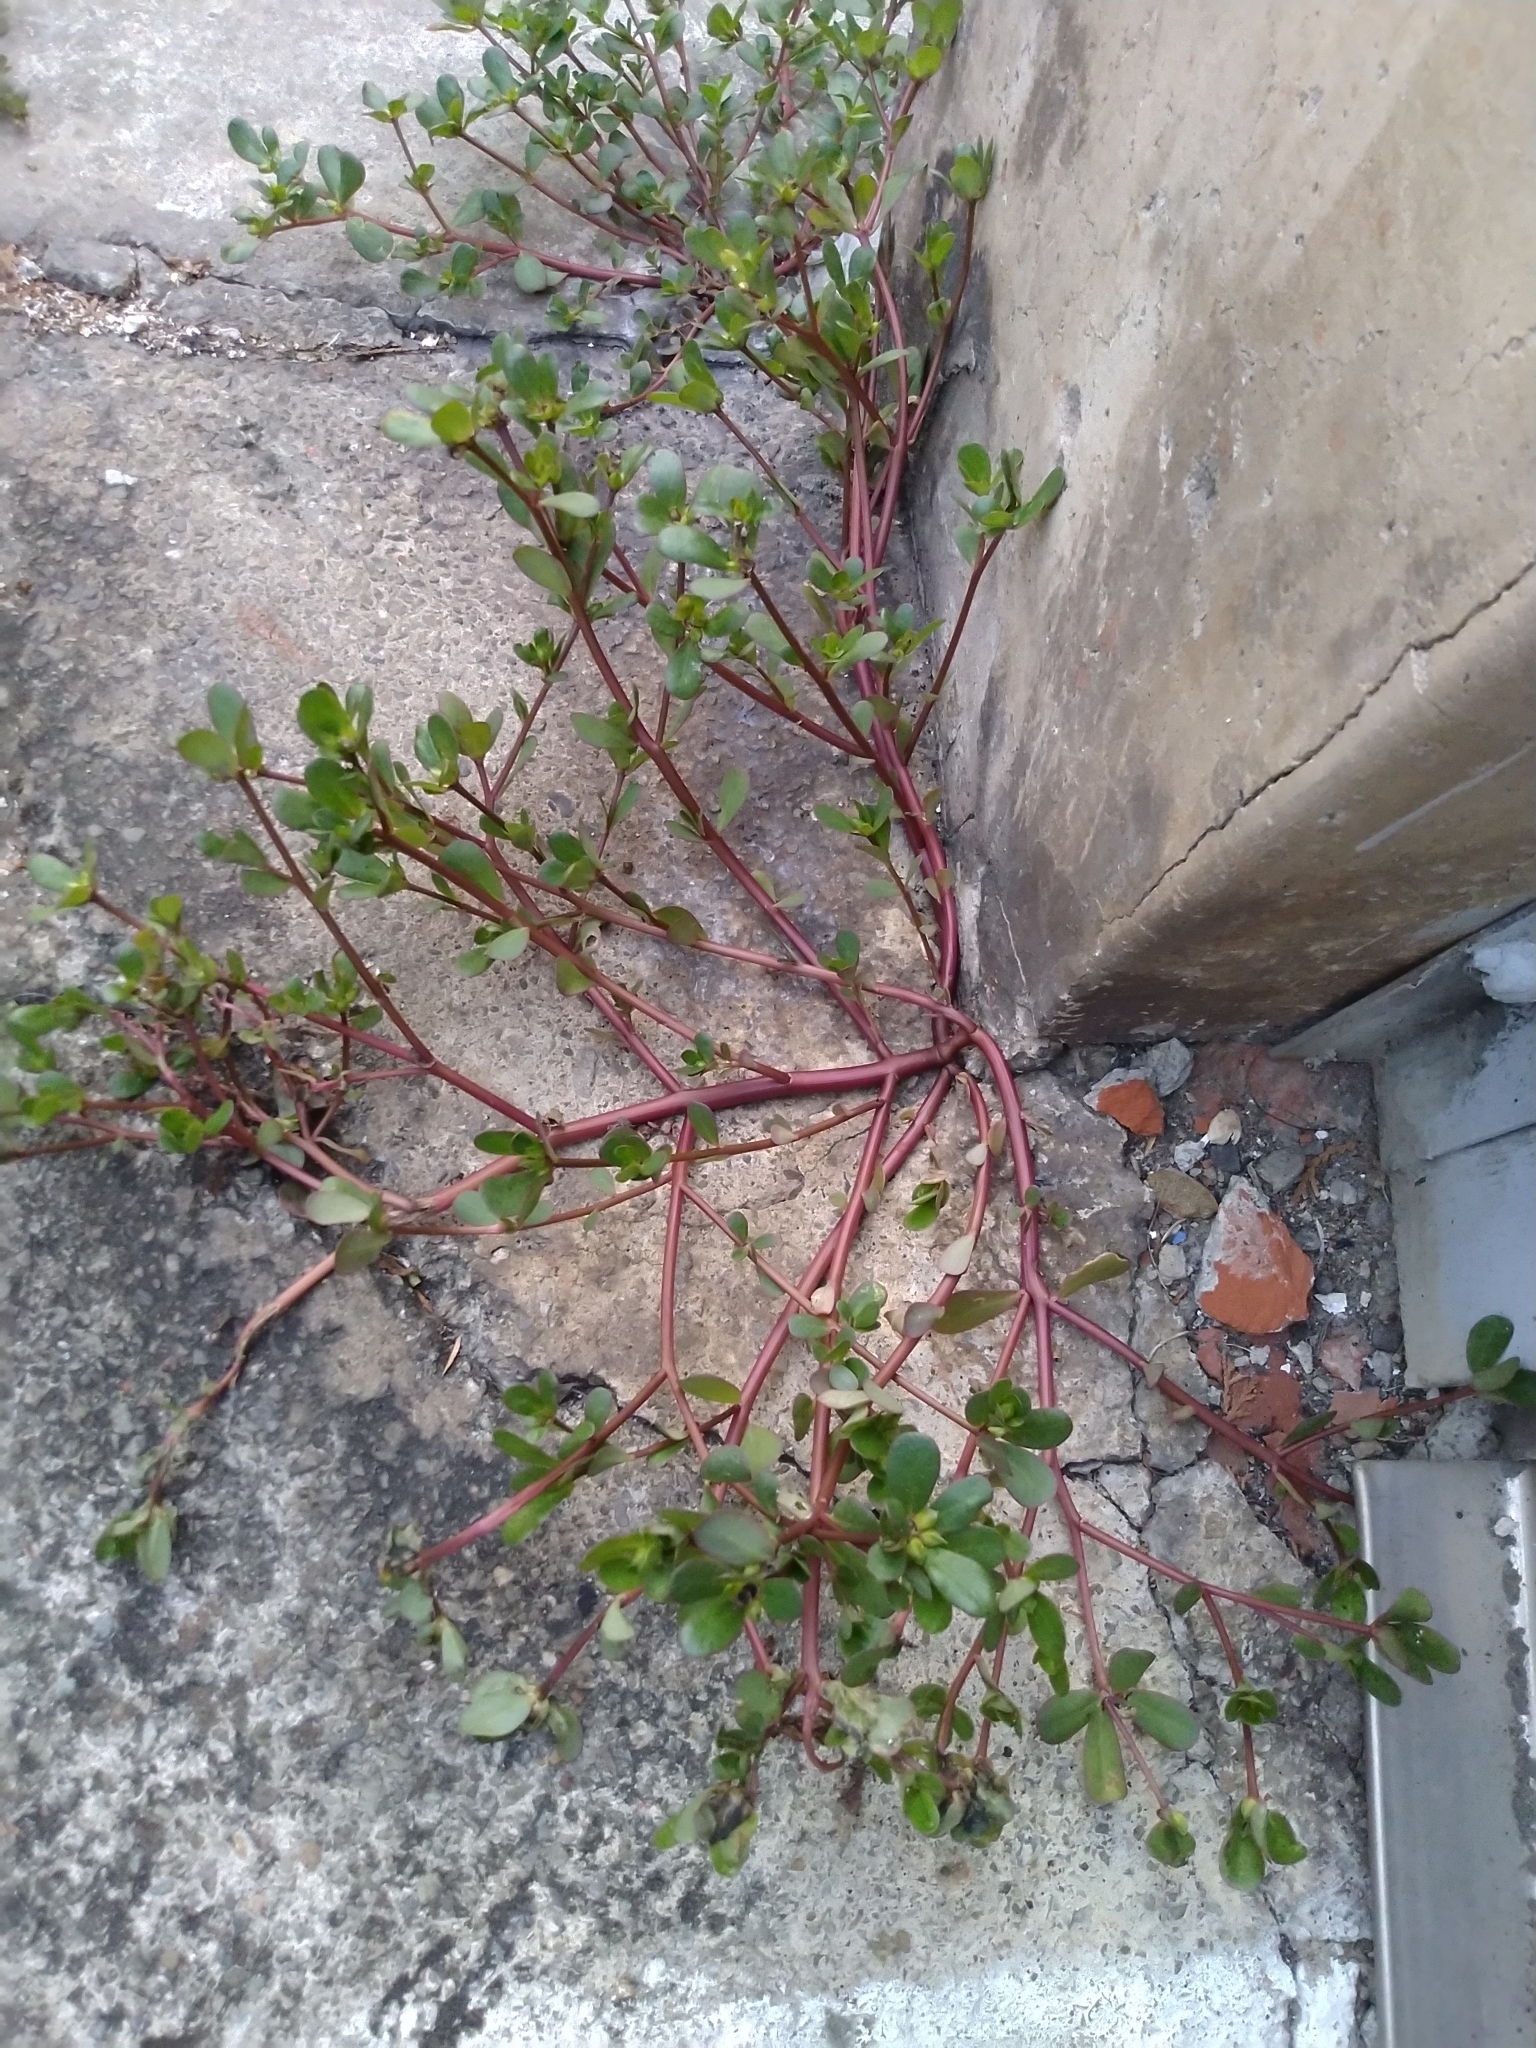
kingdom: Plantae
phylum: Tracheophyta
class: Magnoliopsida
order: Caryophyllales
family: Portulacaceae
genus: Portulaca
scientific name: Portulaca oleracea
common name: Common purslane
